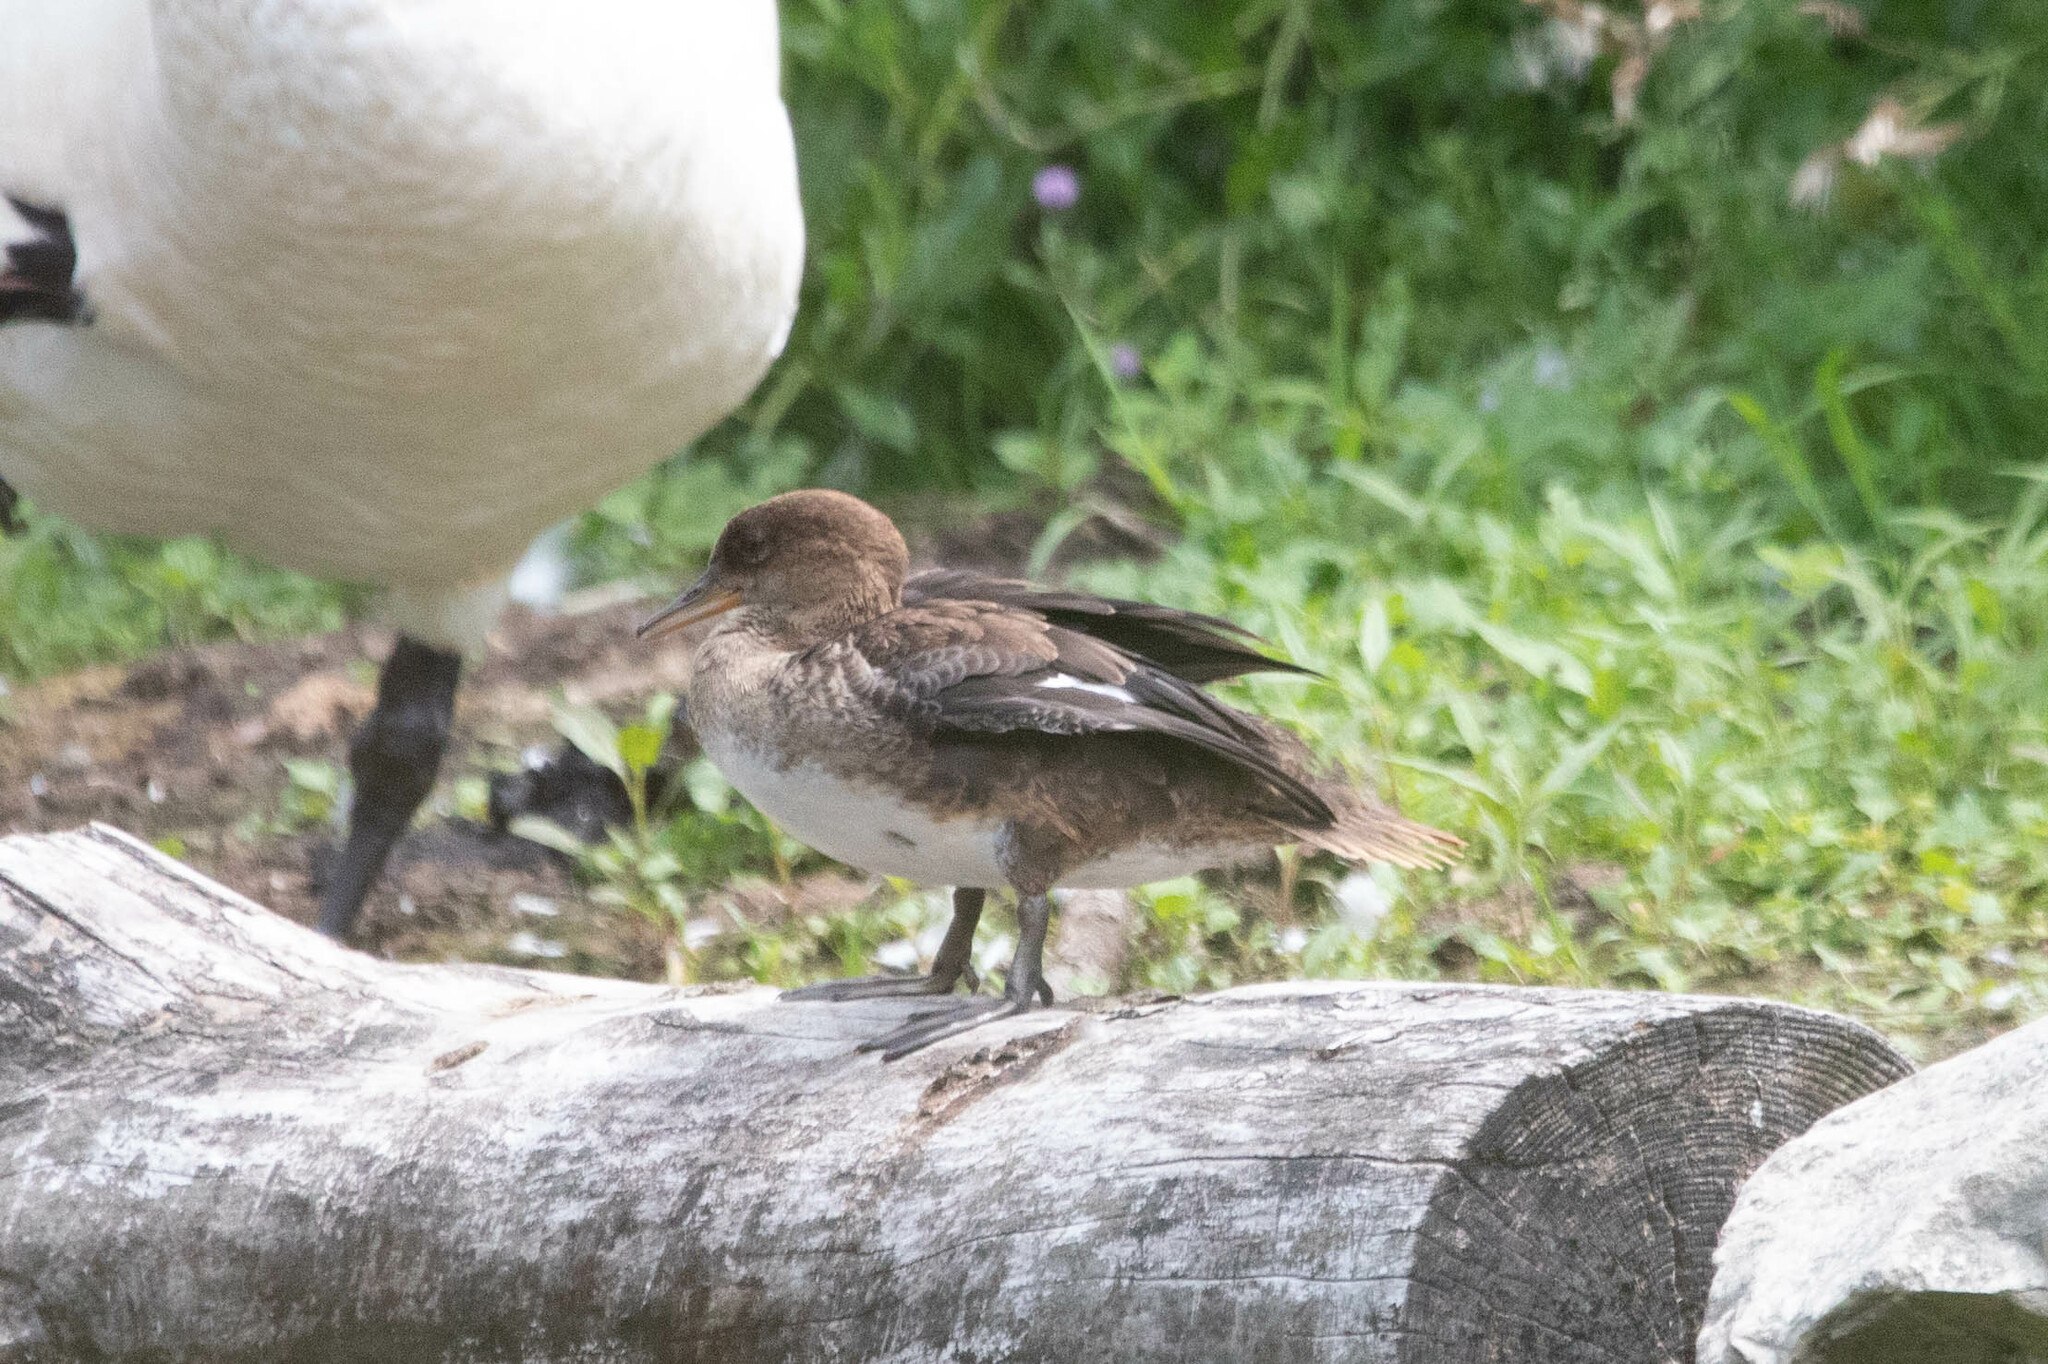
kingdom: Animalia
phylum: Chordata
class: Aves
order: Anseriformes
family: Anatidae
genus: Lophodytes
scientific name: Lophodytes cucullatus
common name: Hooded merganser
